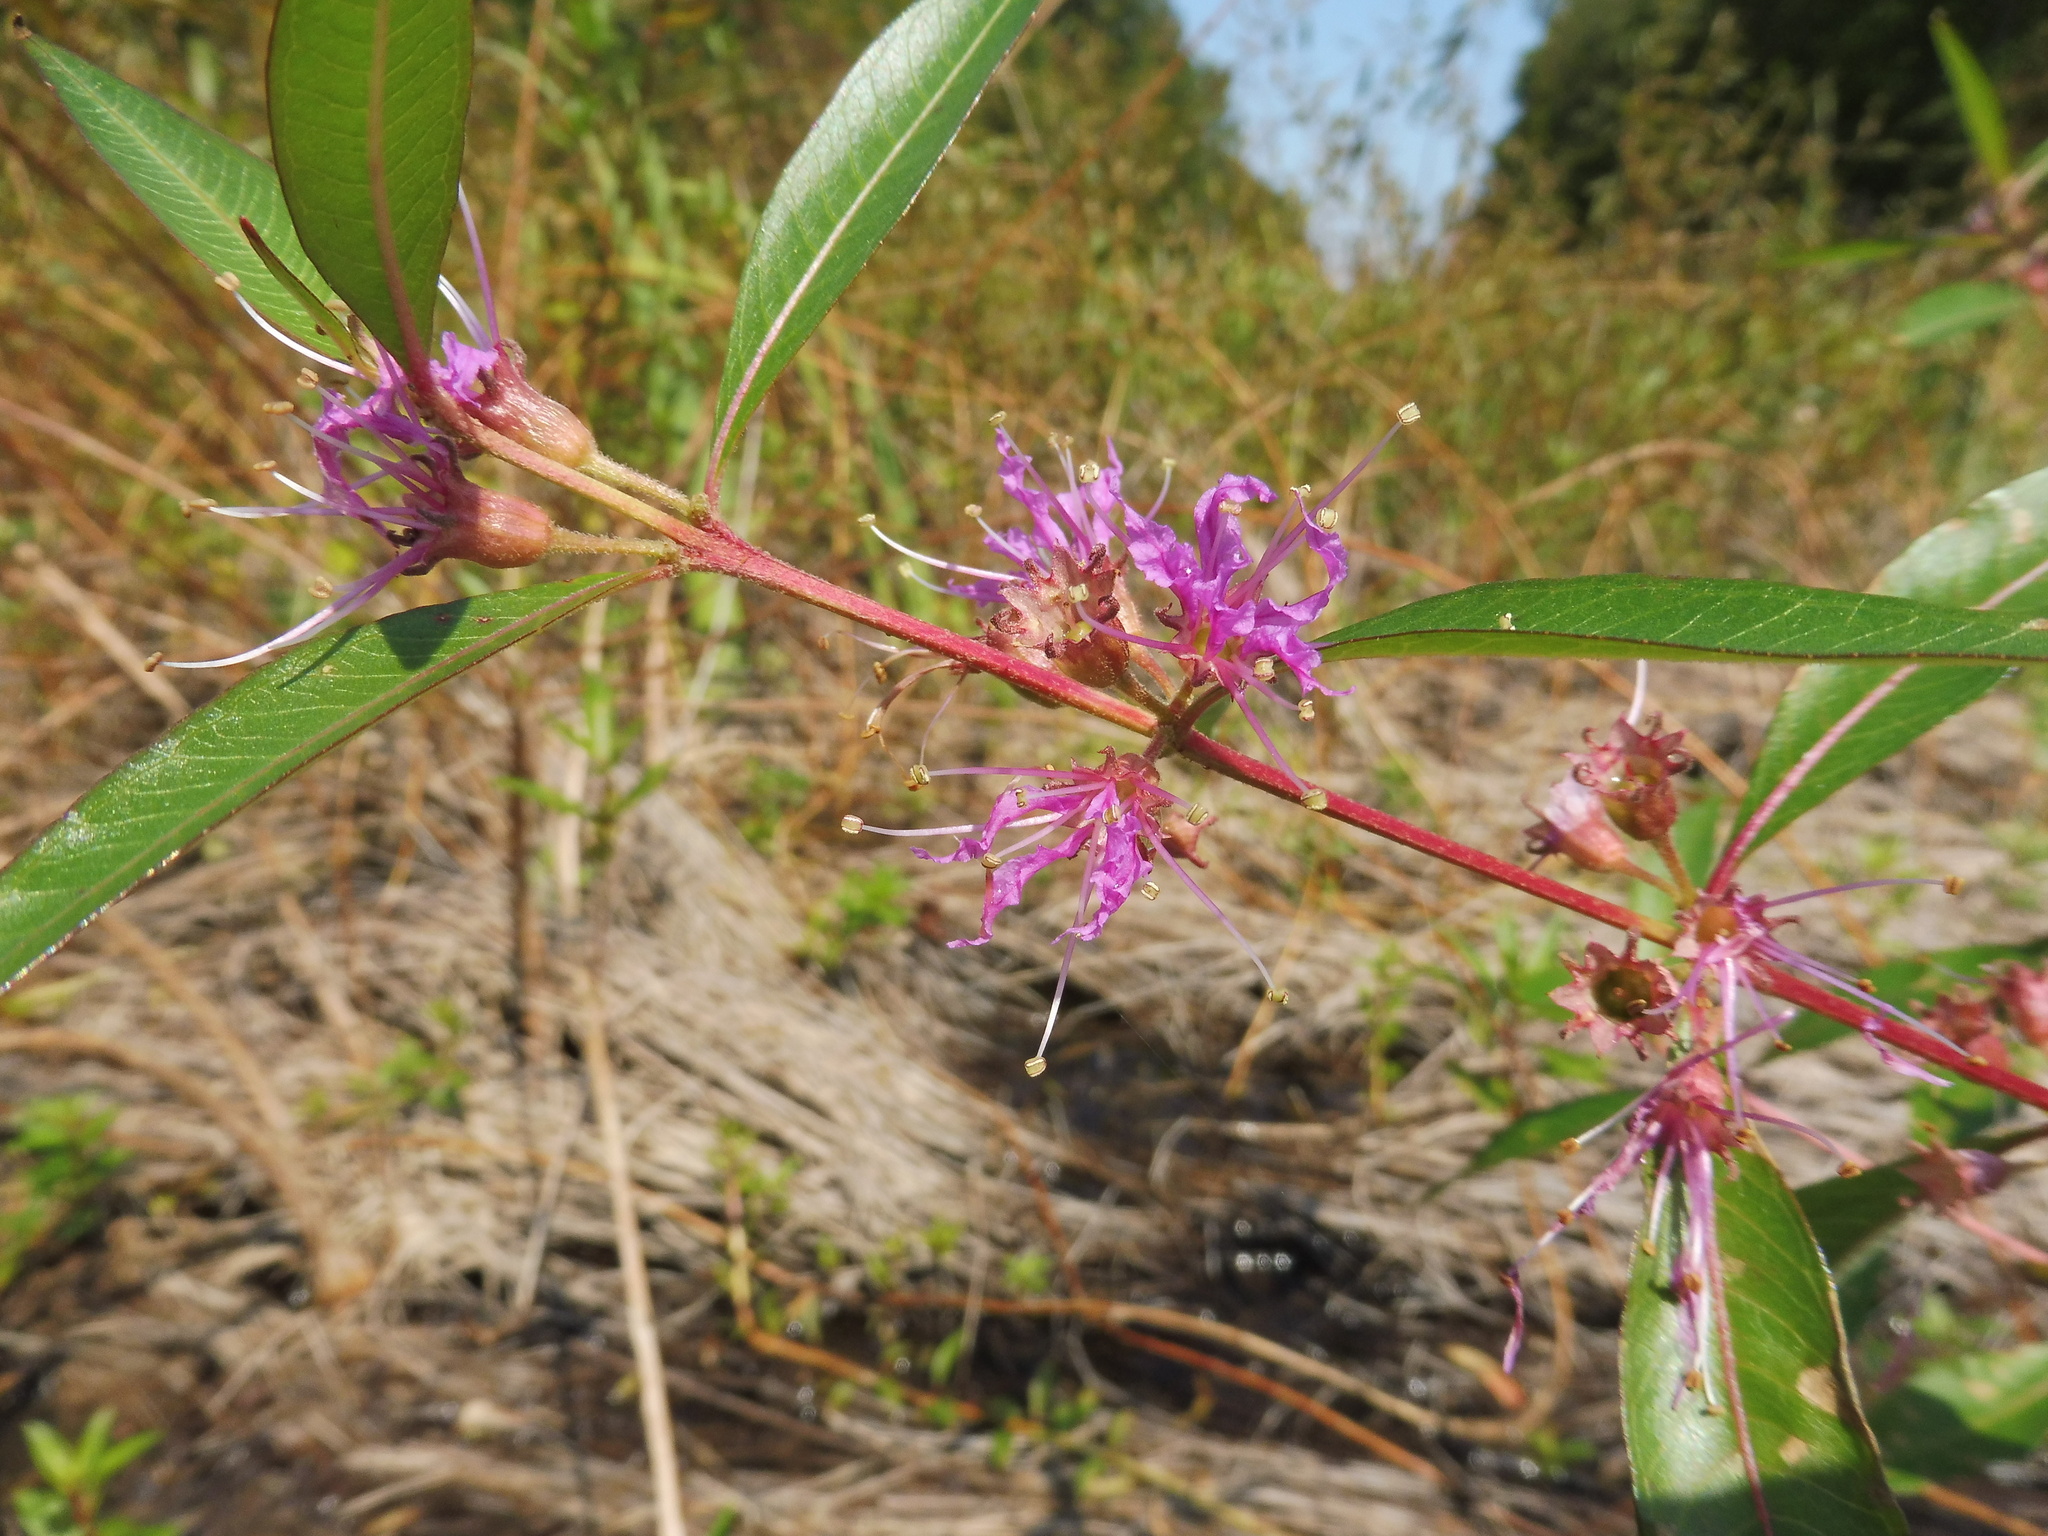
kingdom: Plantae
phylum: Tracheophyta
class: Magnoliopsida
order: Myrtales
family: Lythraceae
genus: Decodon
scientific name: Decodon verticillatus
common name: Hairy swamp loosestrife
